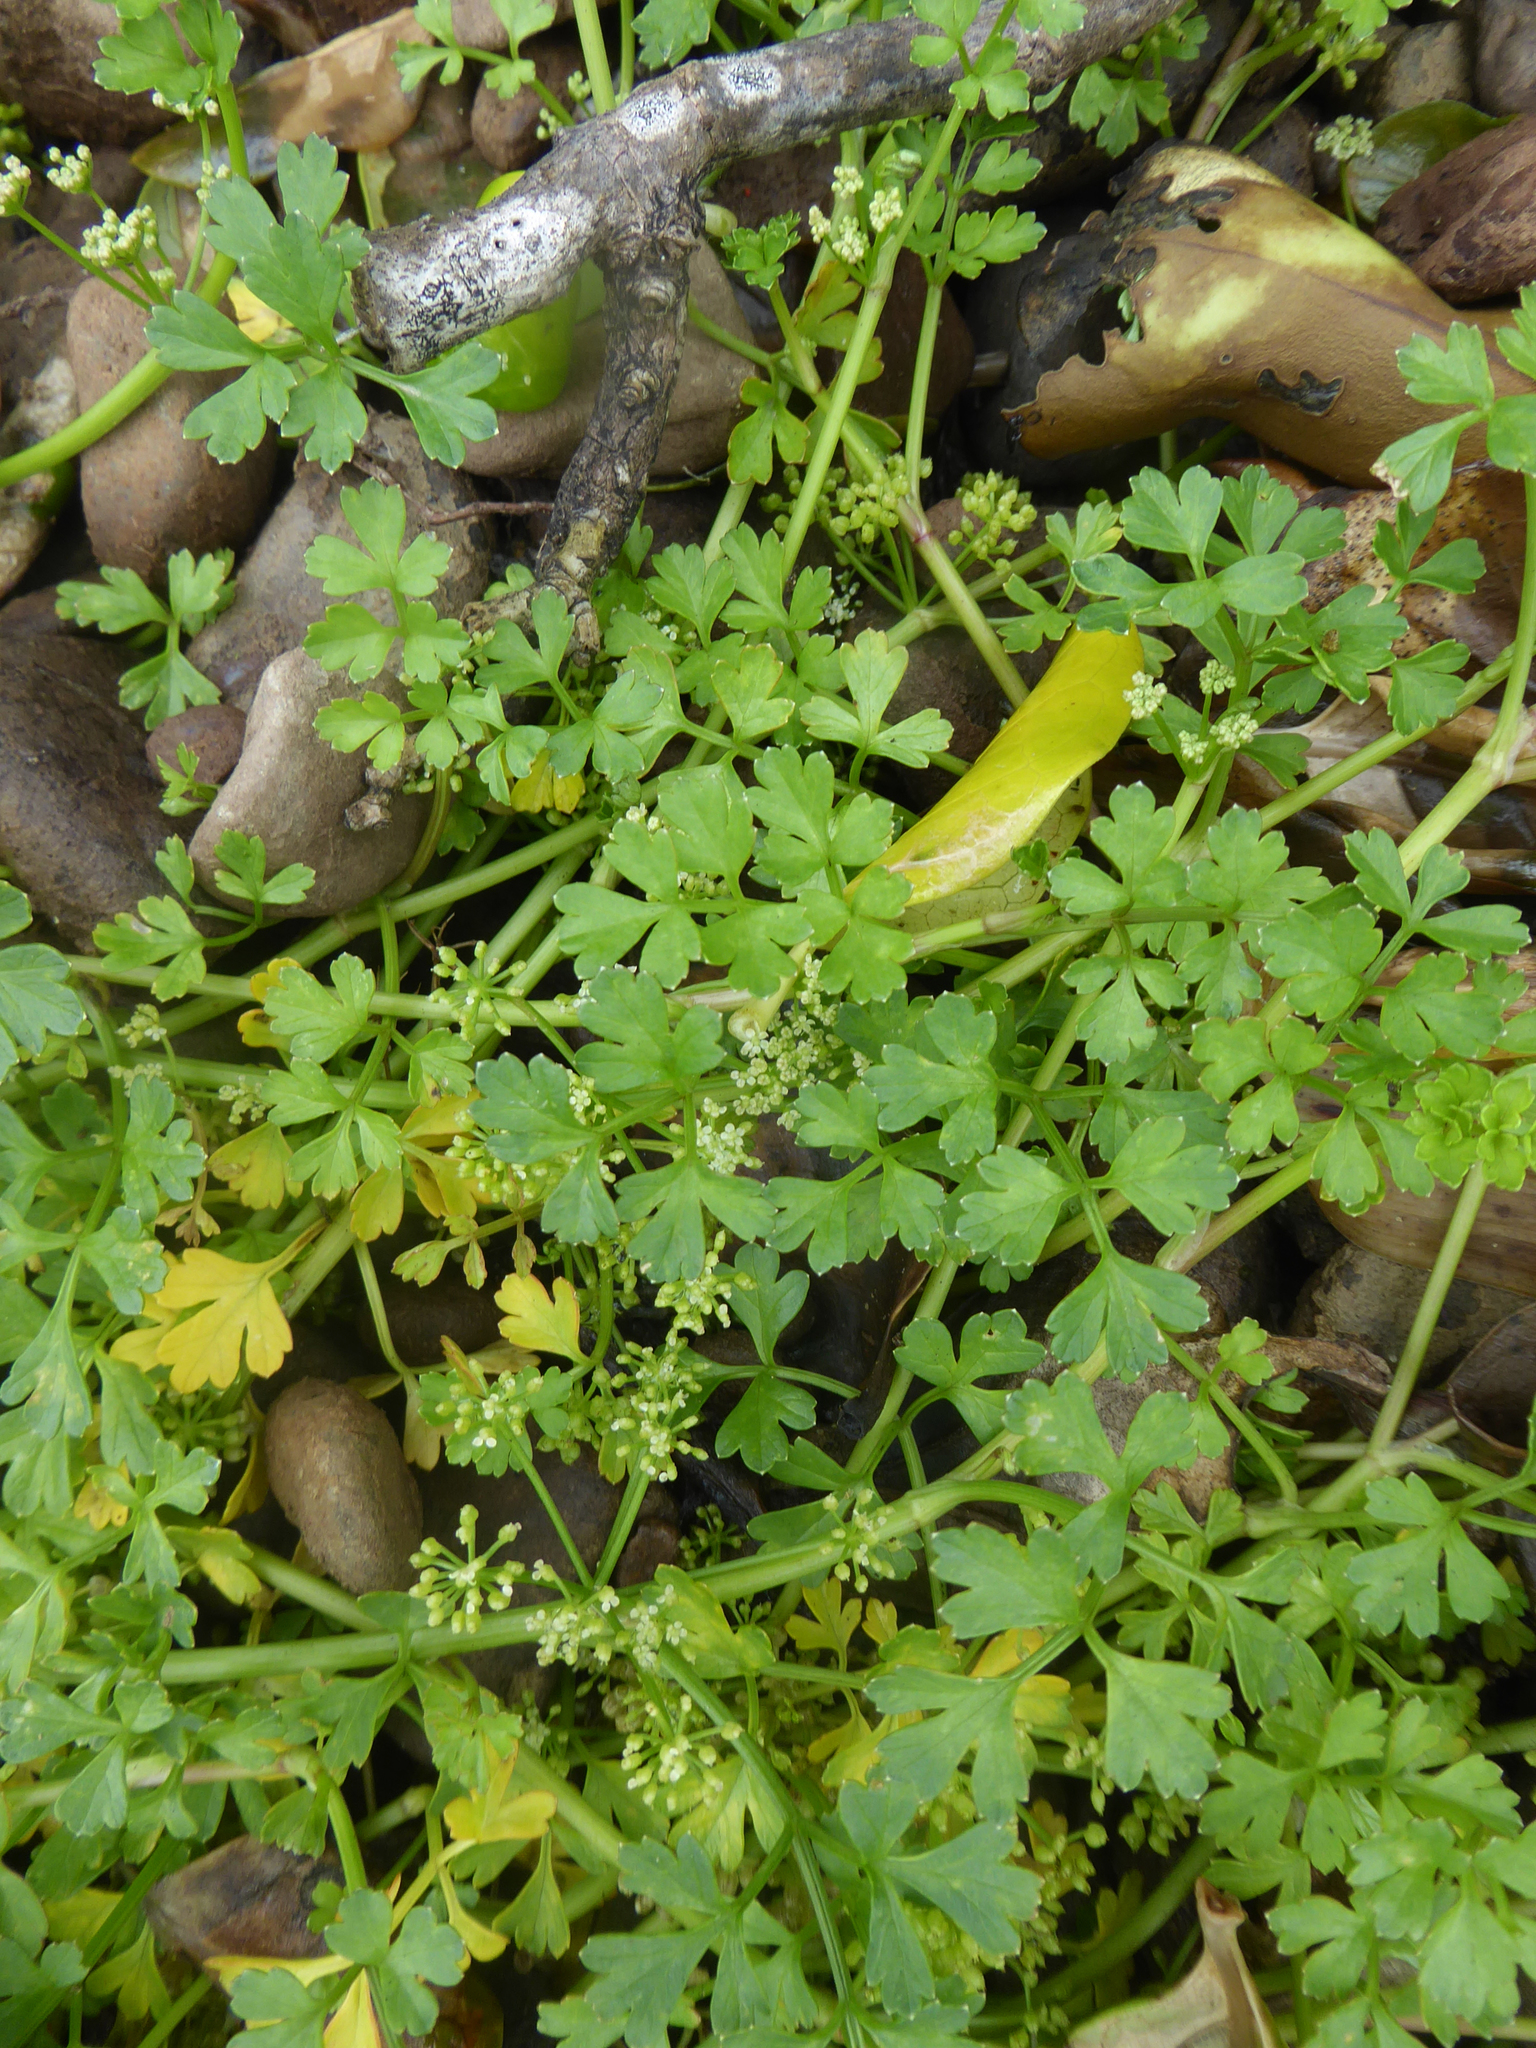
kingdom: Plantae
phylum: Tracheophyta
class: Magnoliopsida
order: Apiales
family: Apiaceae
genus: Apium
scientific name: Apium prostratum
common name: Prostrate marshwort
